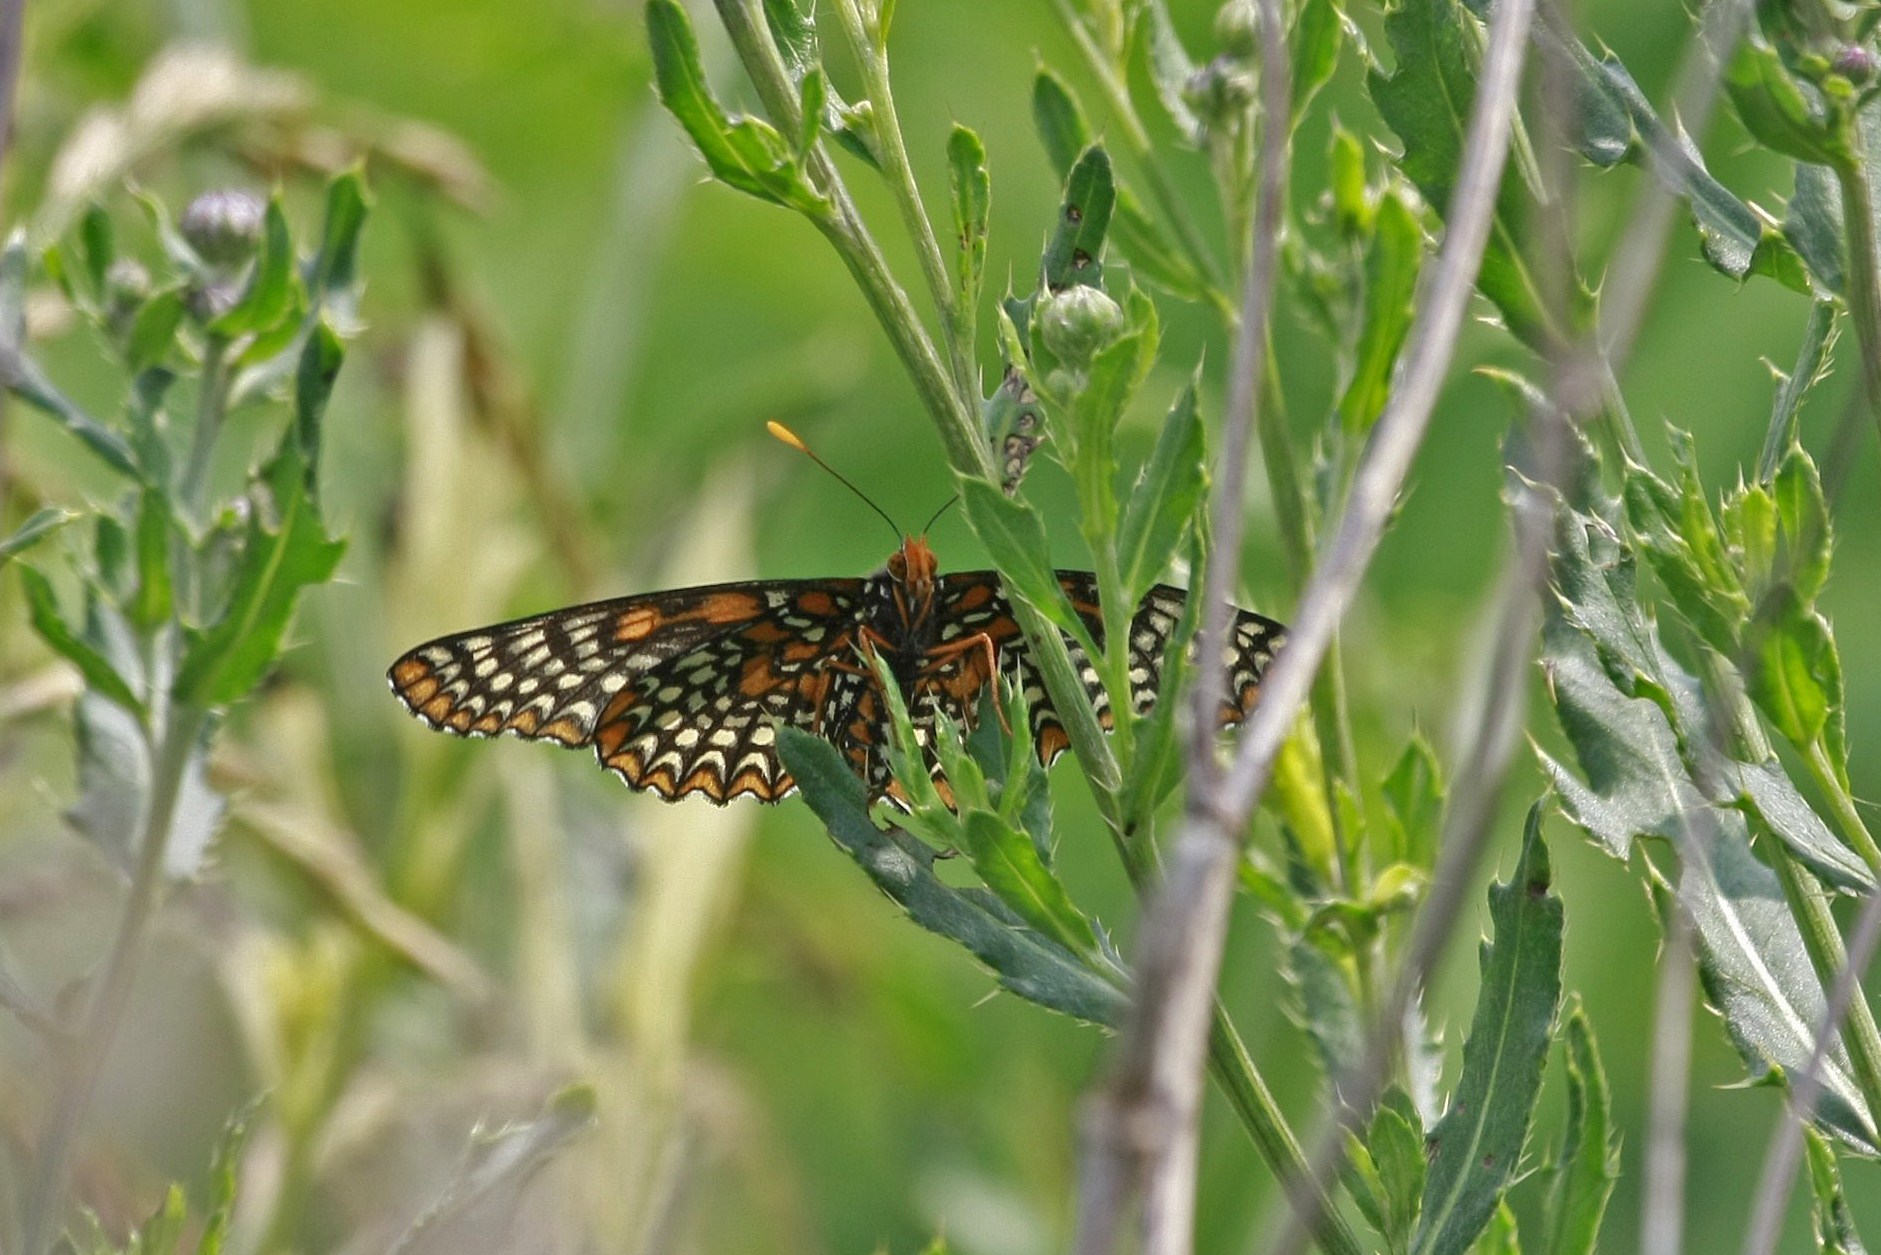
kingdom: Animalia
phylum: Arthropoda
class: Insecta
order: Lepidoptera
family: Nymphalidae
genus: Euphydryas
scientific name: Euphydryas phaeton
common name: Baltimore checkerspot
